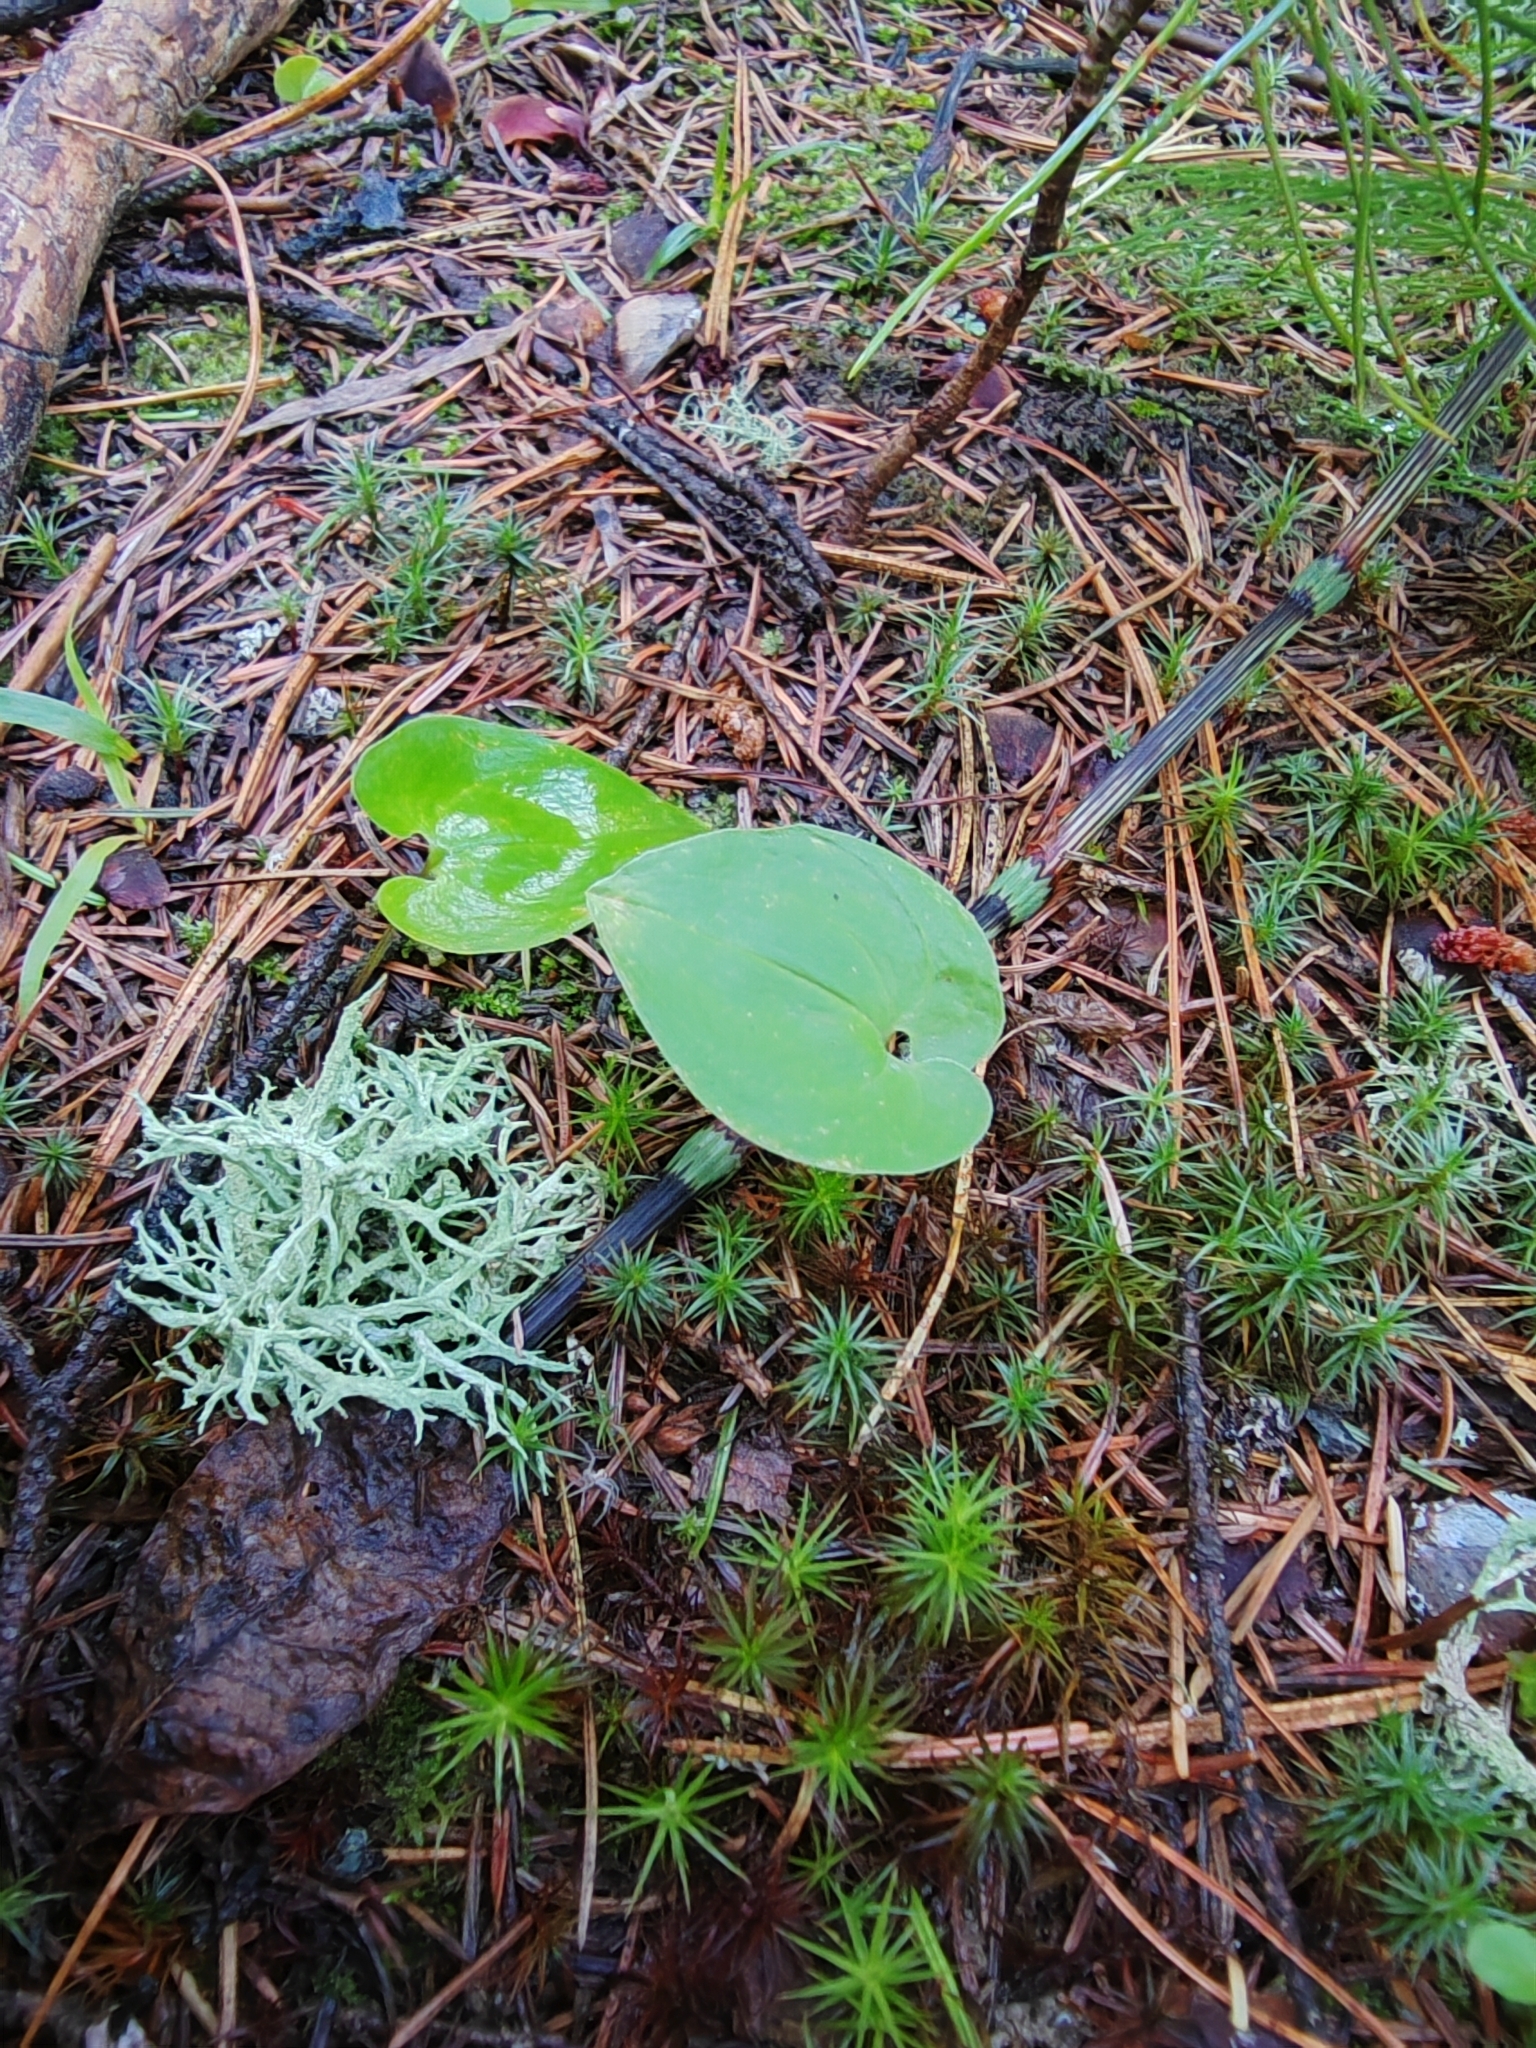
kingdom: Plantae
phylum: Tracheophyta
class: Liliopsida
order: Asparagales
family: Asparagaceae
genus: Maianthemum
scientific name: Maianthemum bifolium
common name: May lily
